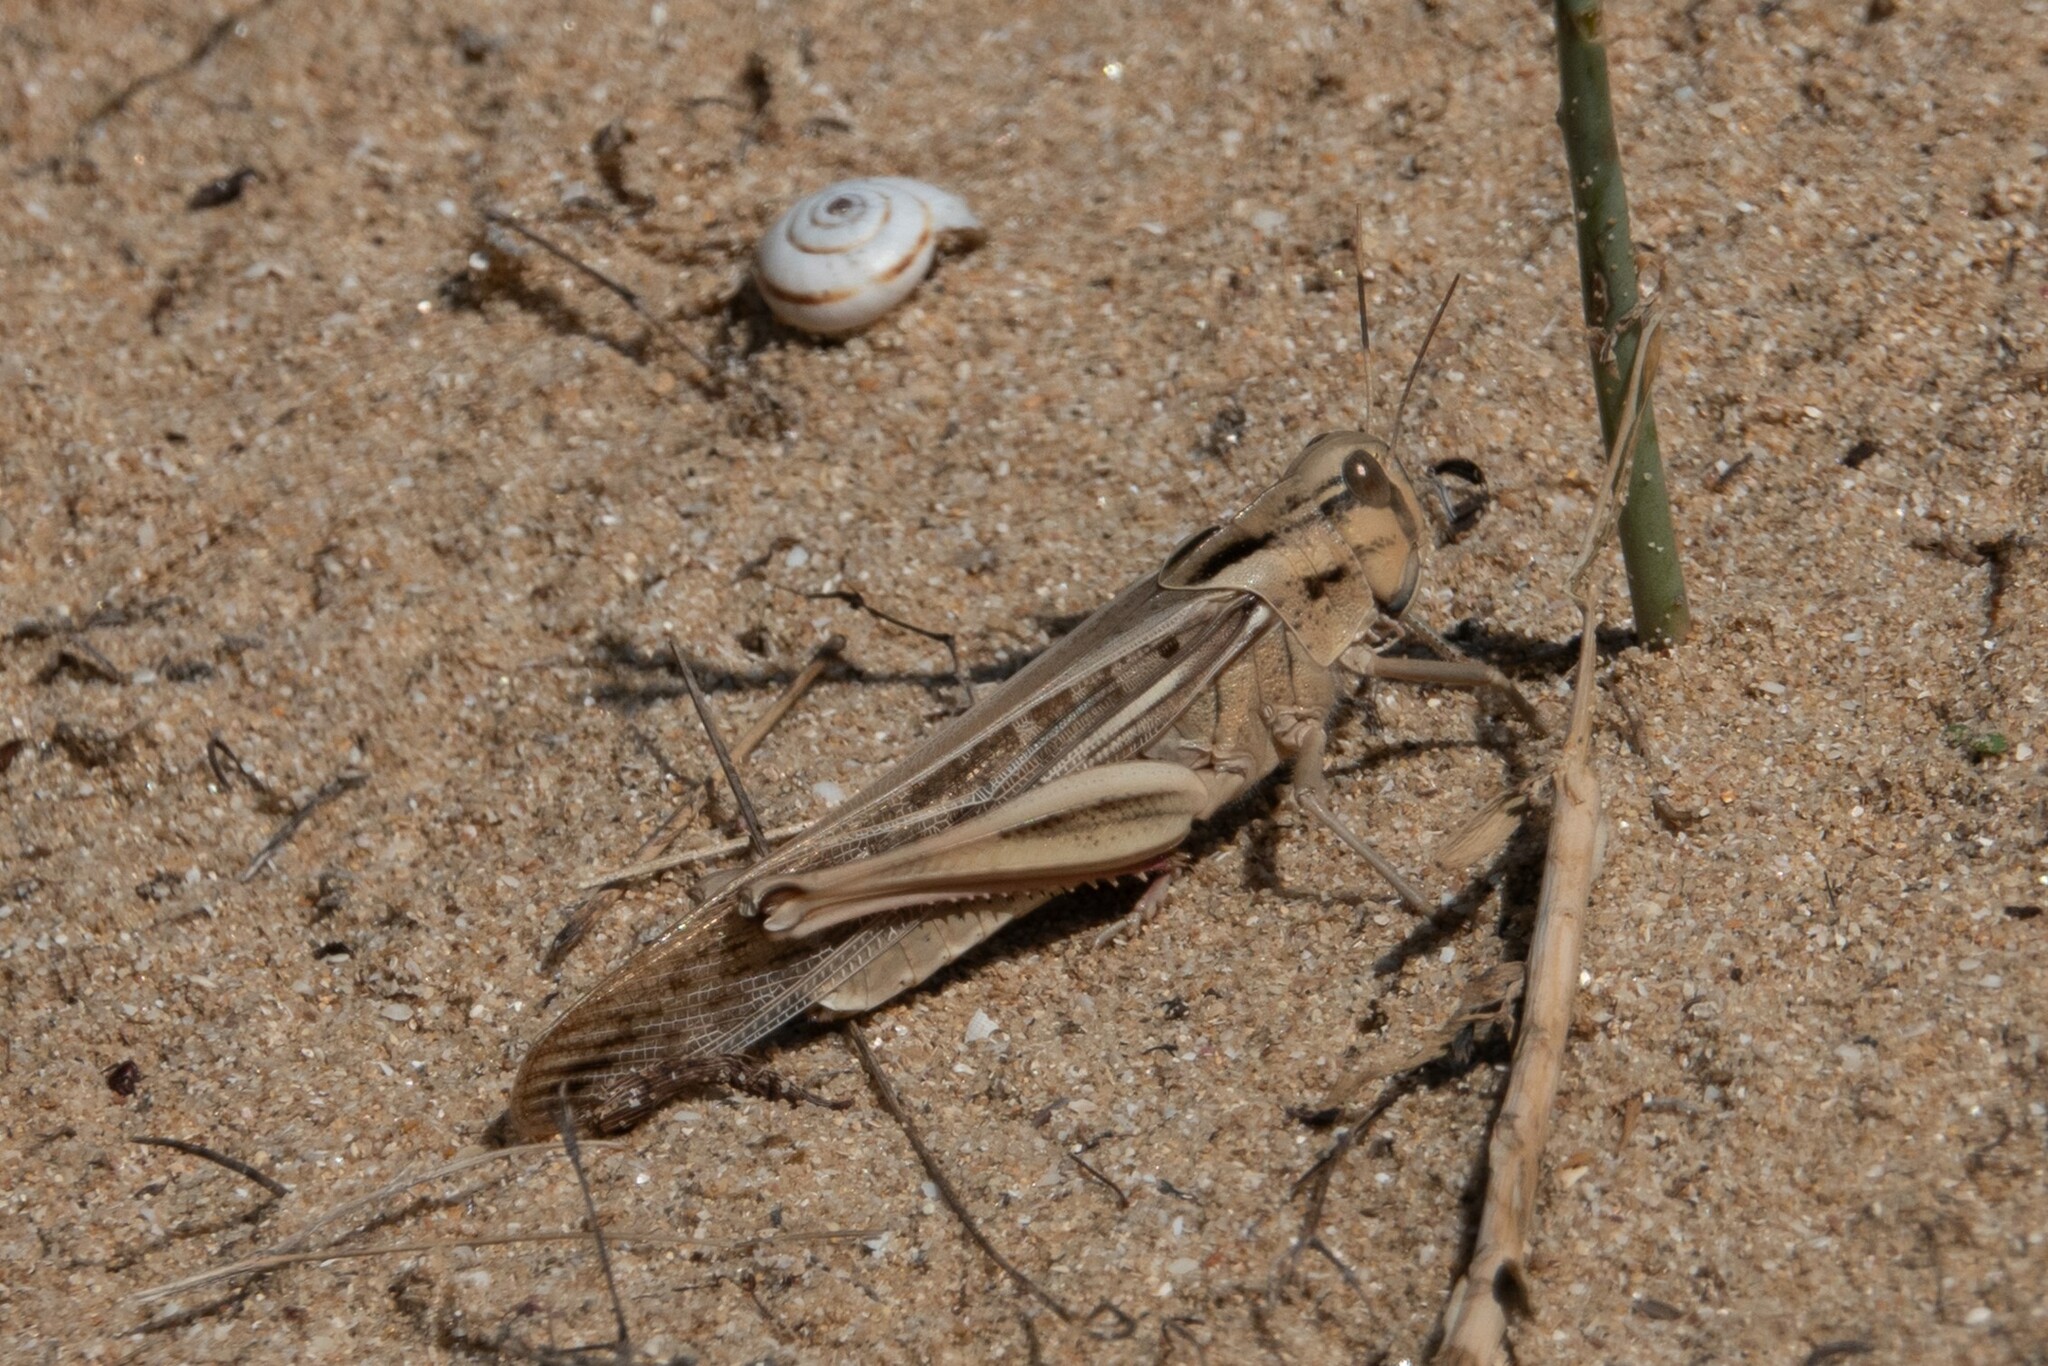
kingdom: Animalia
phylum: Arthropoda
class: Insecta
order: Orthoptera
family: Acrididae
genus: Locusta
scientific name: Locusta migratoria
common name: Migratory locust
